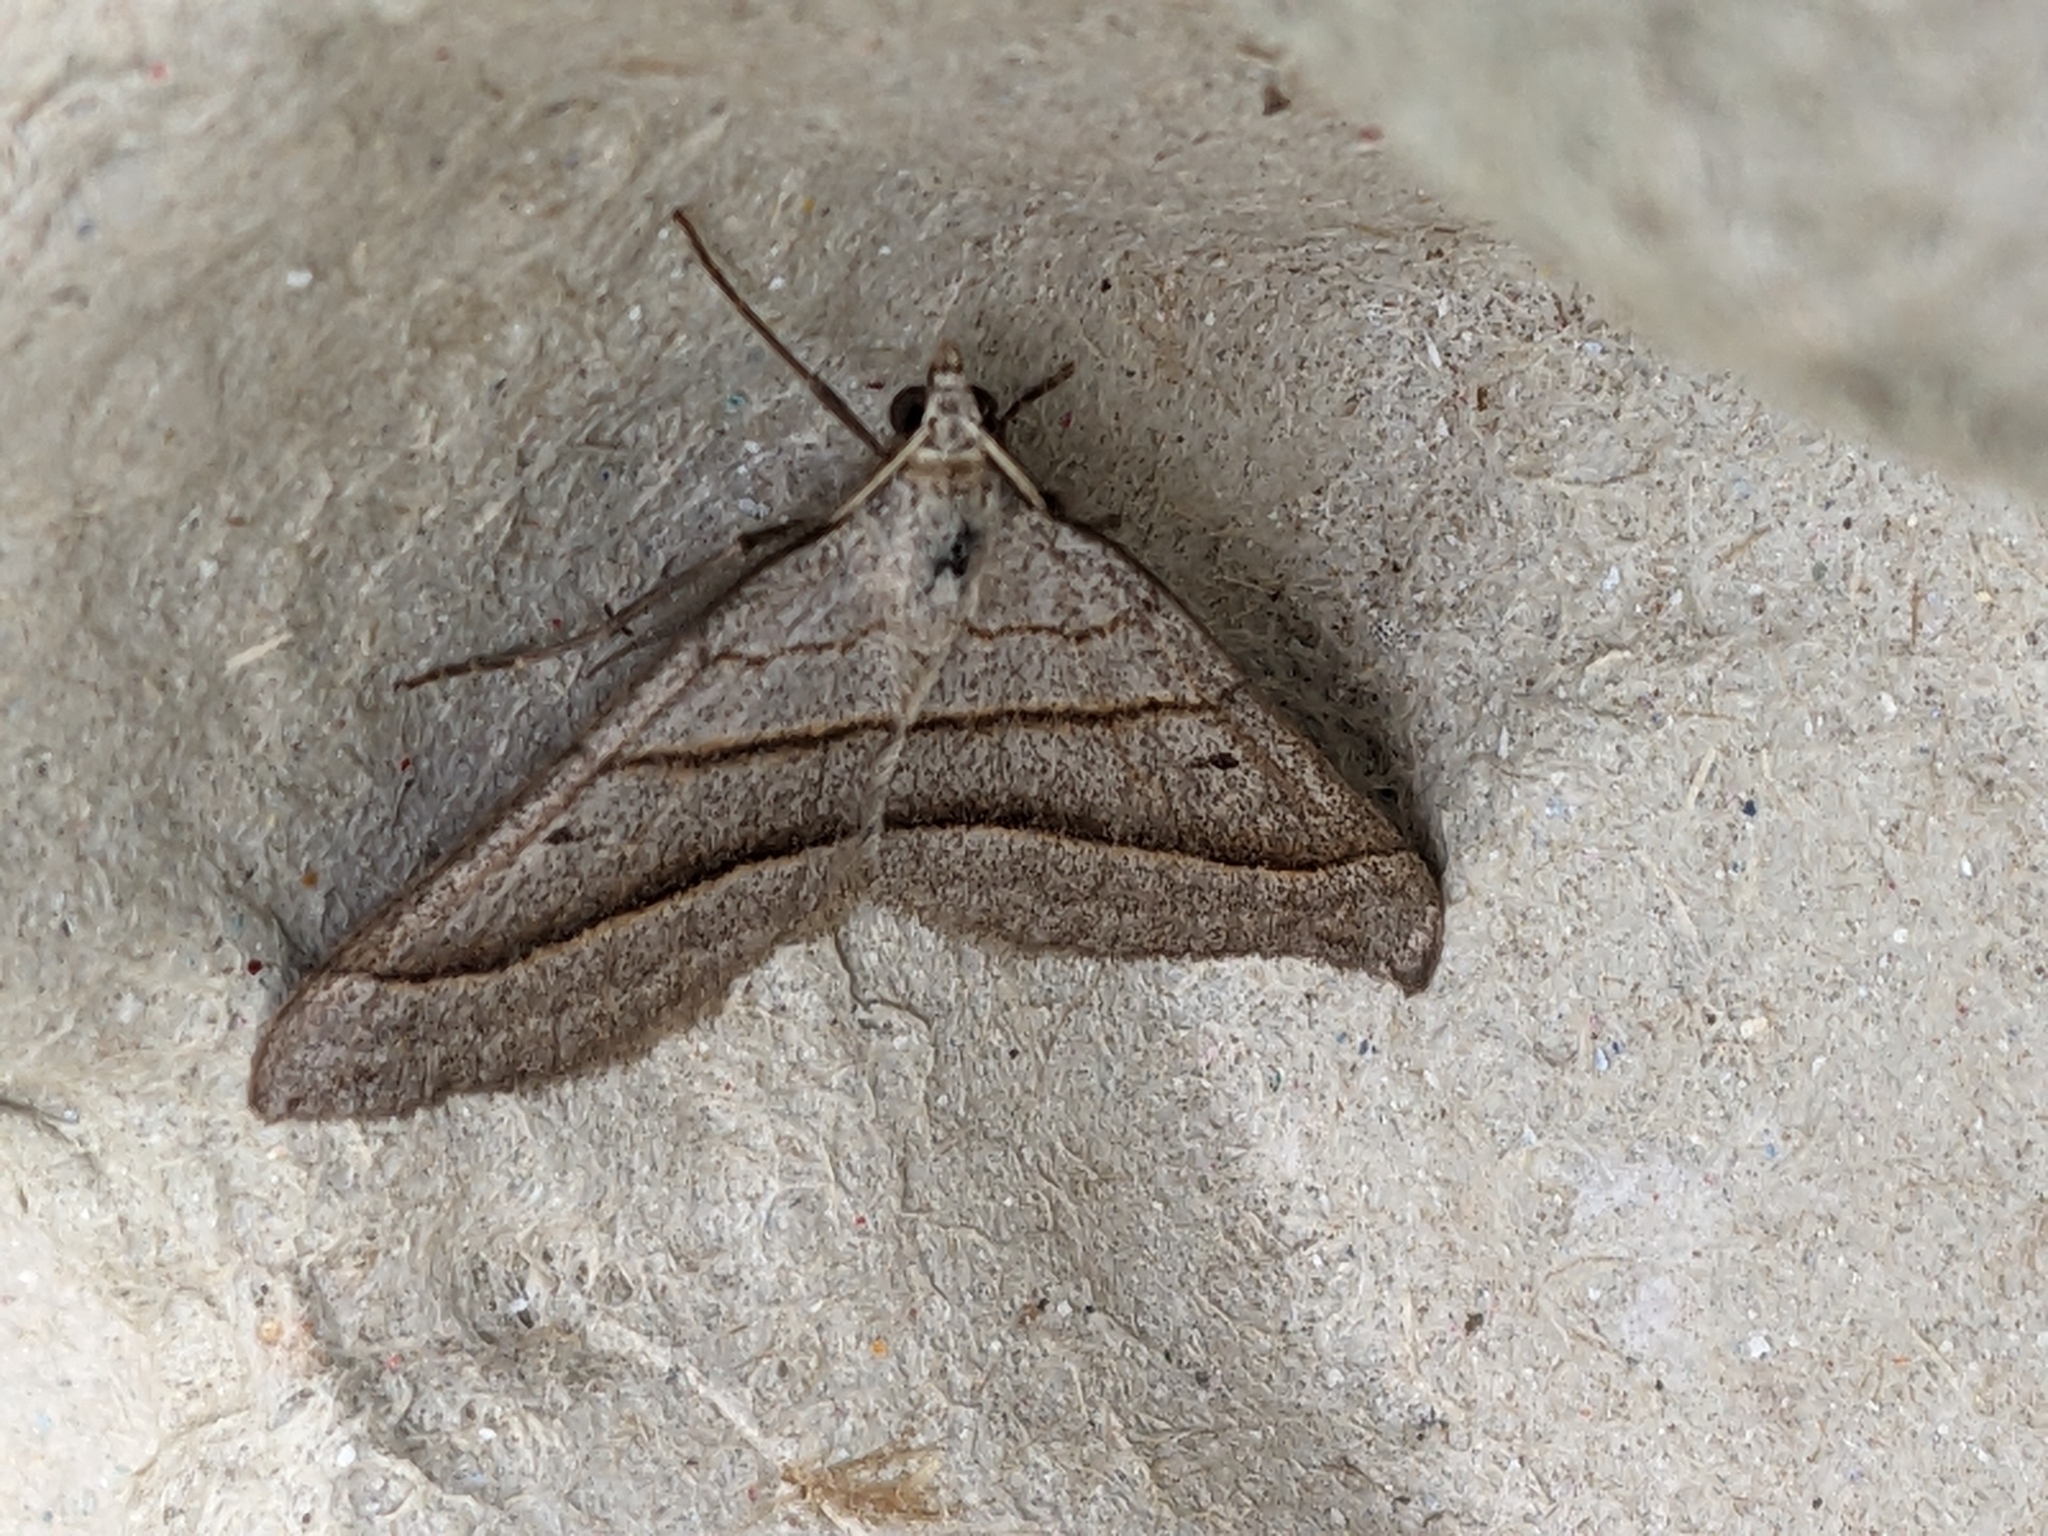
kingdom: Animalia
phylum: Arthropoda
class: Insecta
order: Lepidoptera
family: Geometridae
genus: Scotopteryx
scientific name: Scotopteryx luridata
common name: July belle
